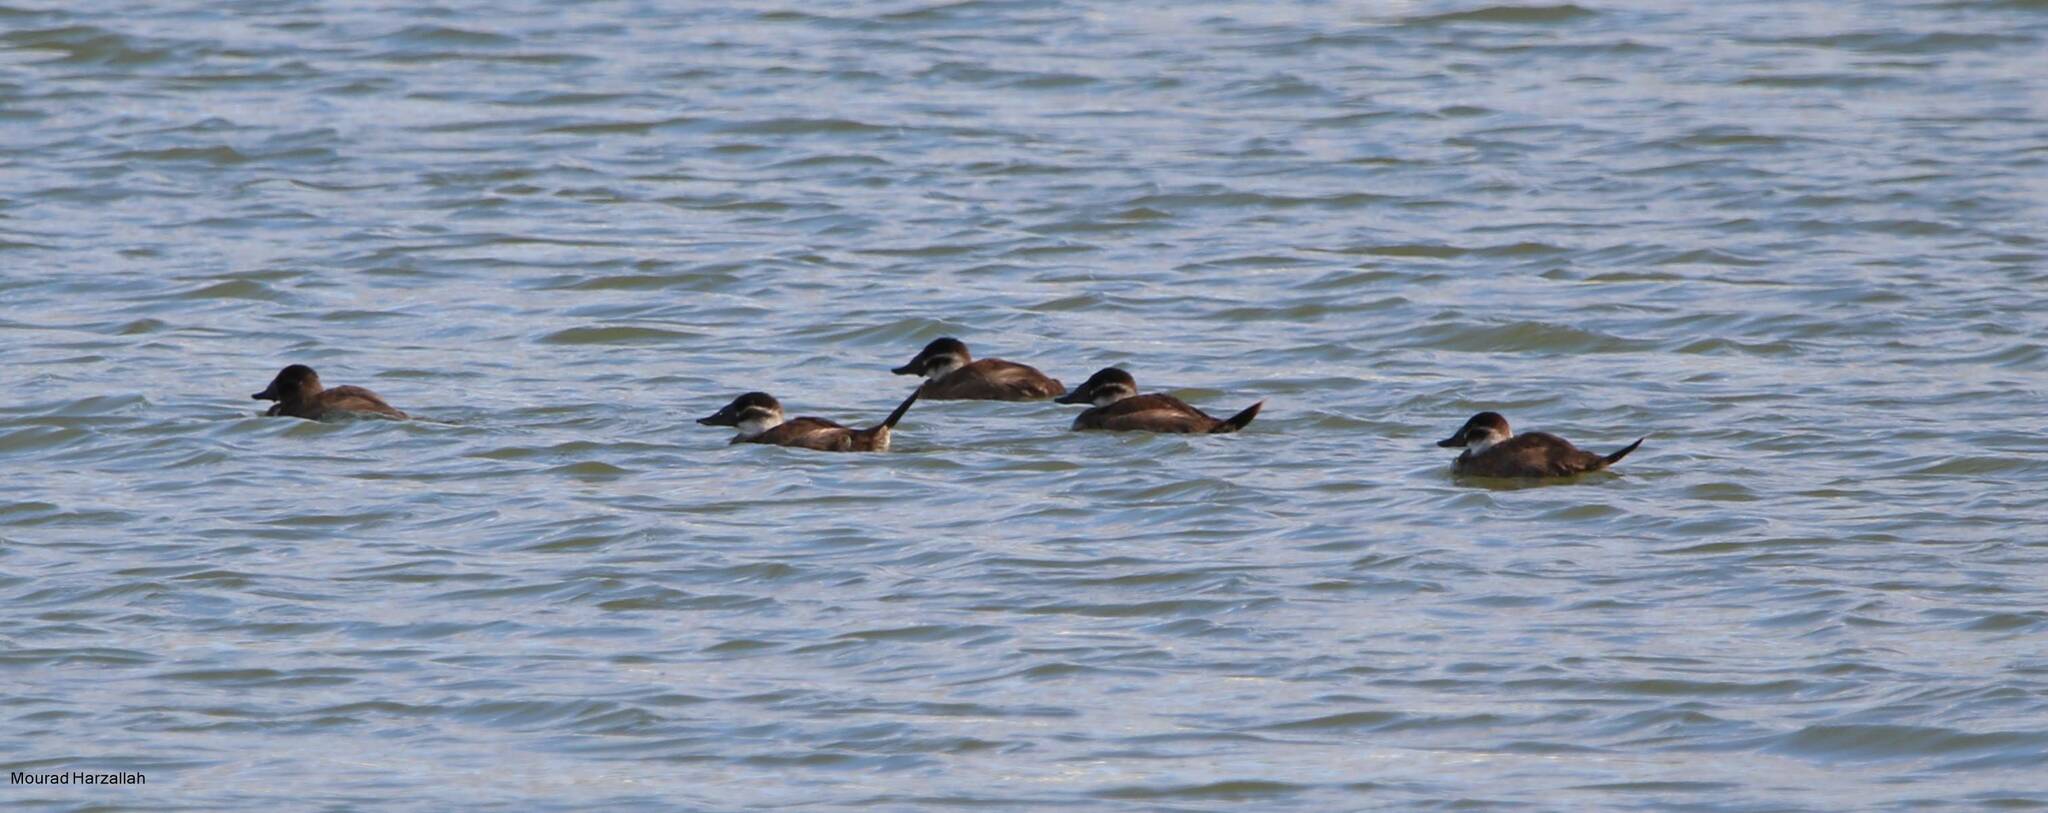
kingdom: Animalia
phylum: Chordata
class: Aves
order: Anseriformes
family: Anatidae
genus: Oxyura
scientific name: Oxyura leucocephala
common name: White-headed duck
